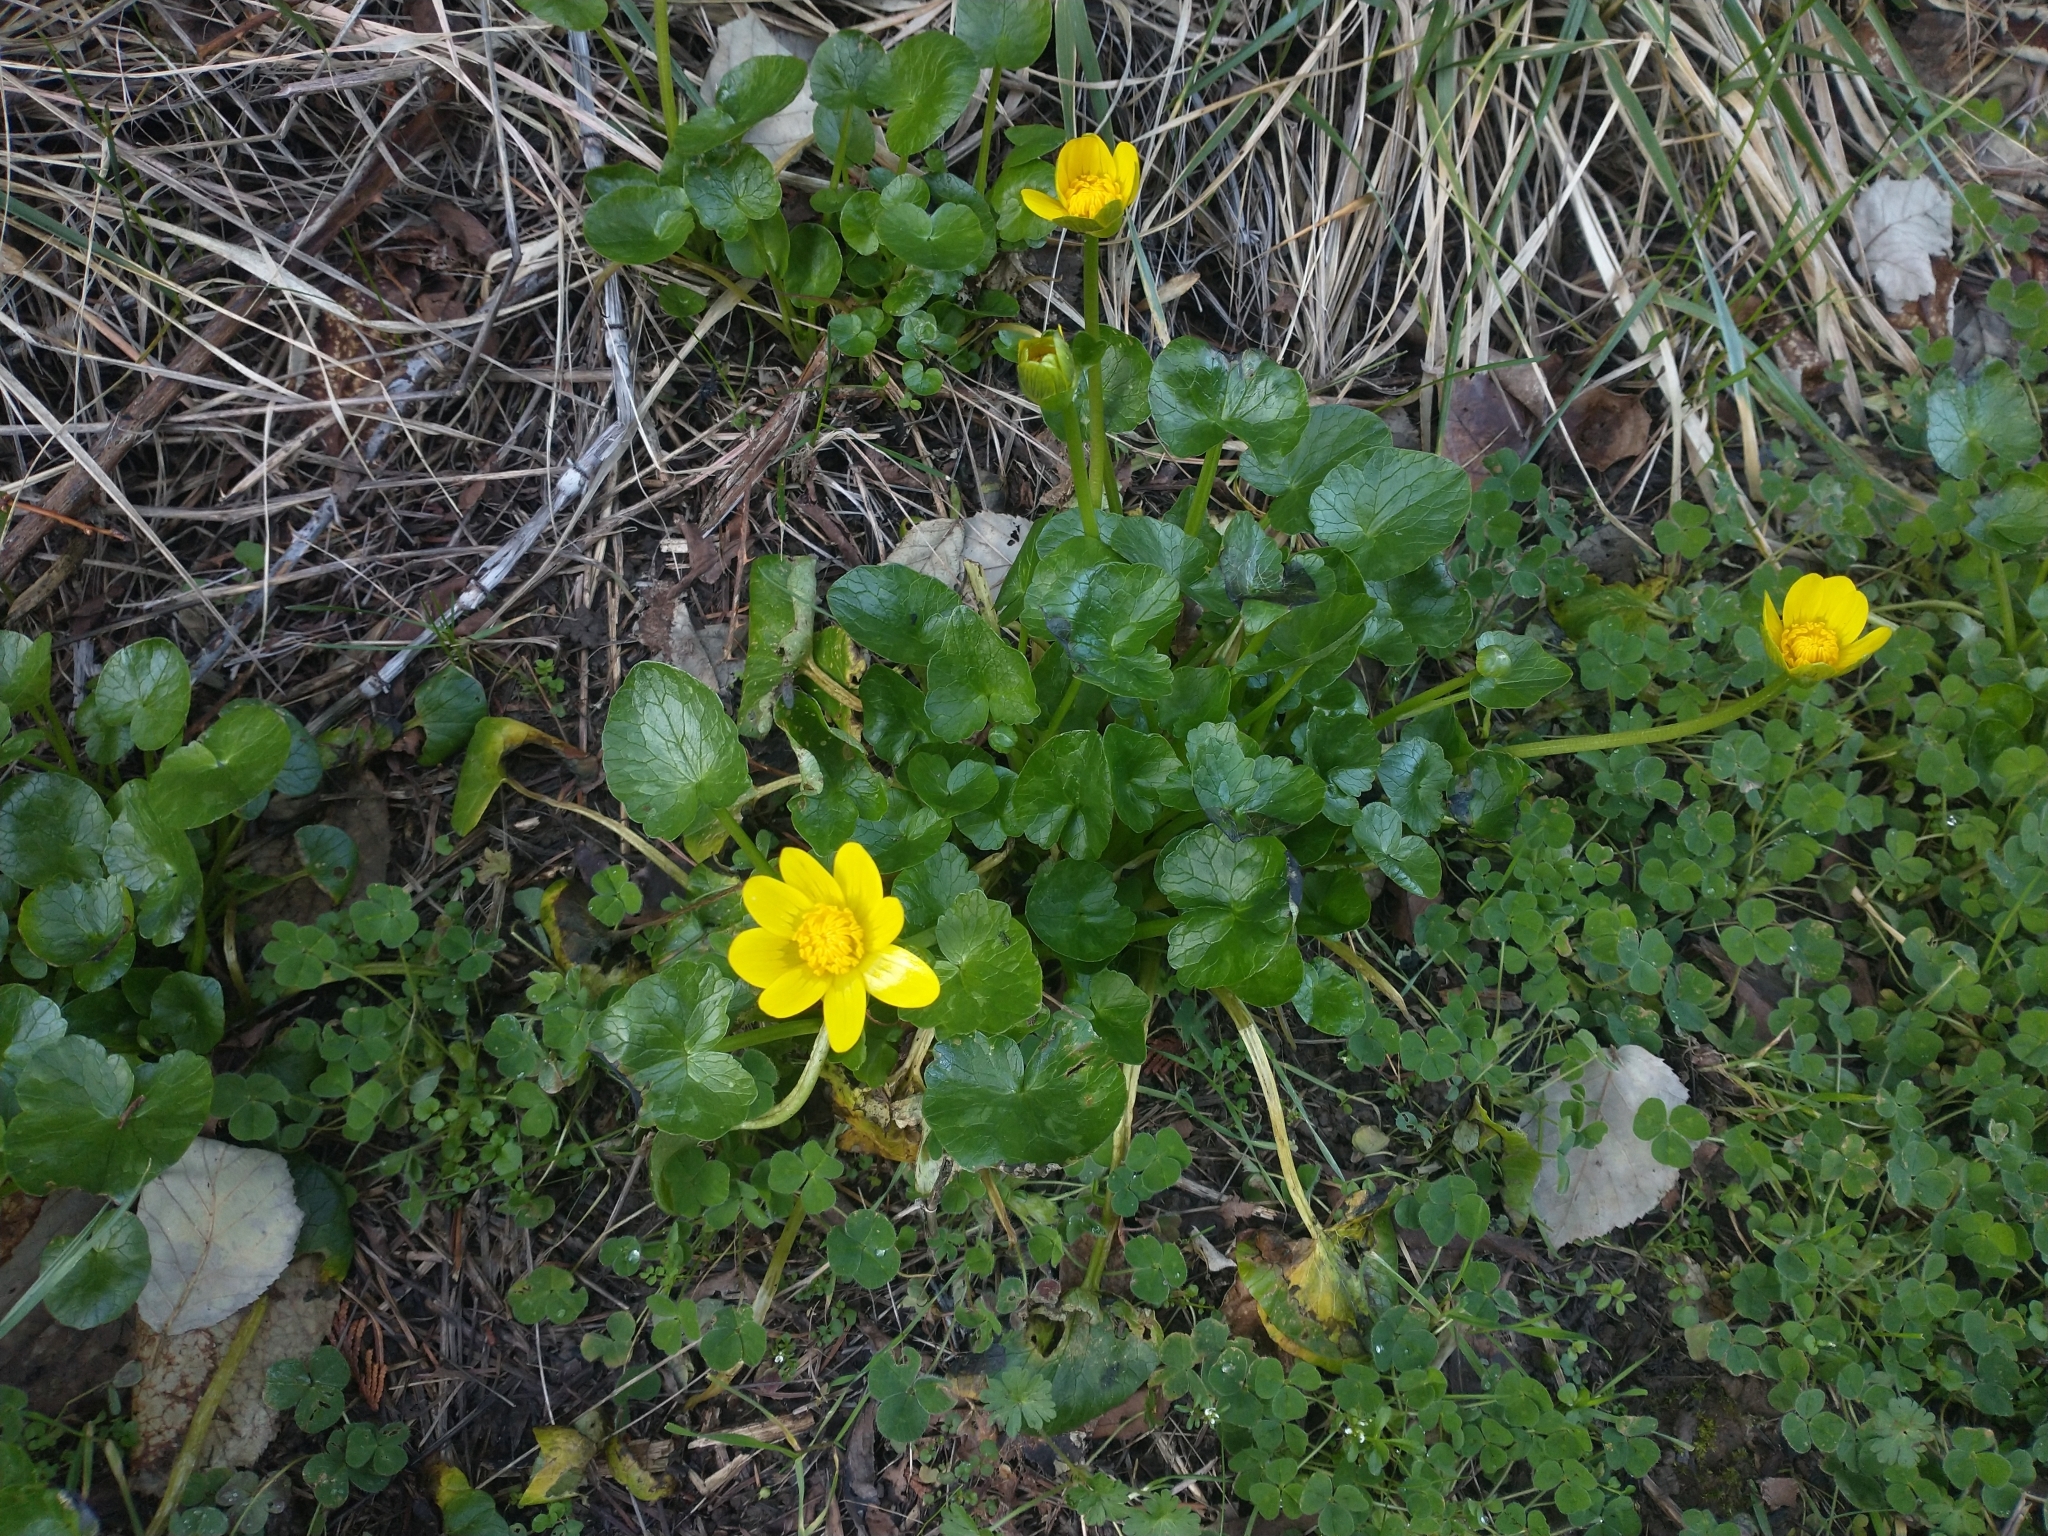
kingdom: Plantae
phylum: Tracheophyta
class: Magnoliopsida
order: Ranunculales
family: Ranunculaceae
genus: Ficaria
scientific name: Ficaria verna
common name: Lesser celandine
